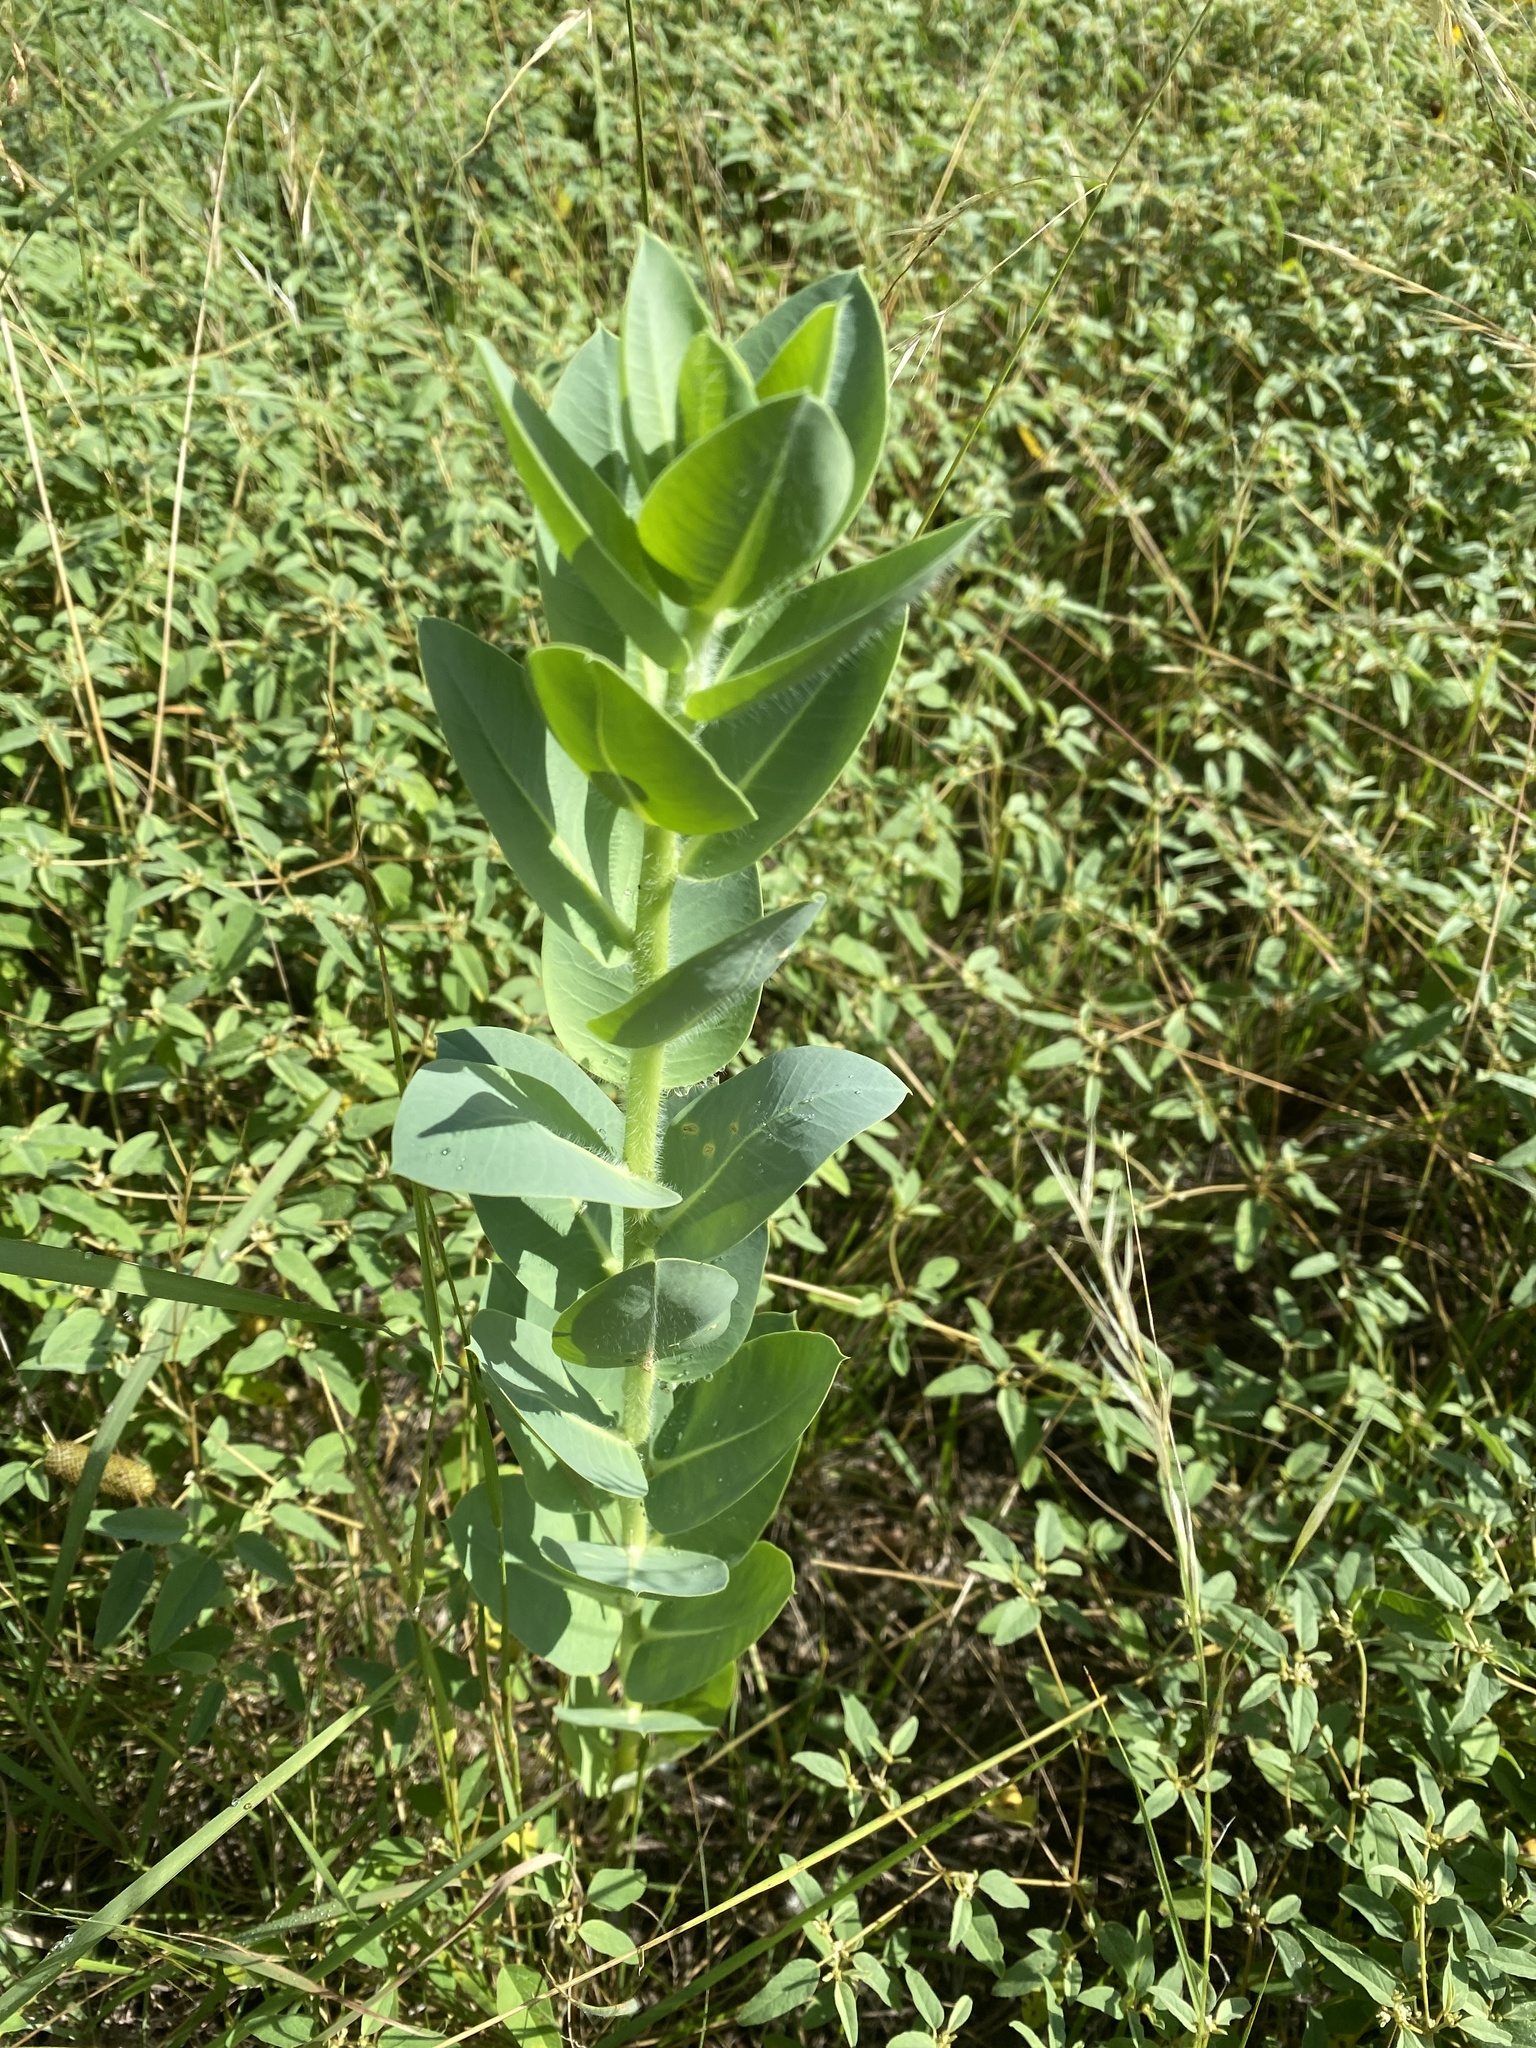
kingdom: Plantae
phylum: Tracheophyta
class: Magnoliopsida
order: Malpighiales
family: Euphorbiaceae
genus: Euphorbia
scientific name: Euphorbia marginata
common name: Ghostweed
